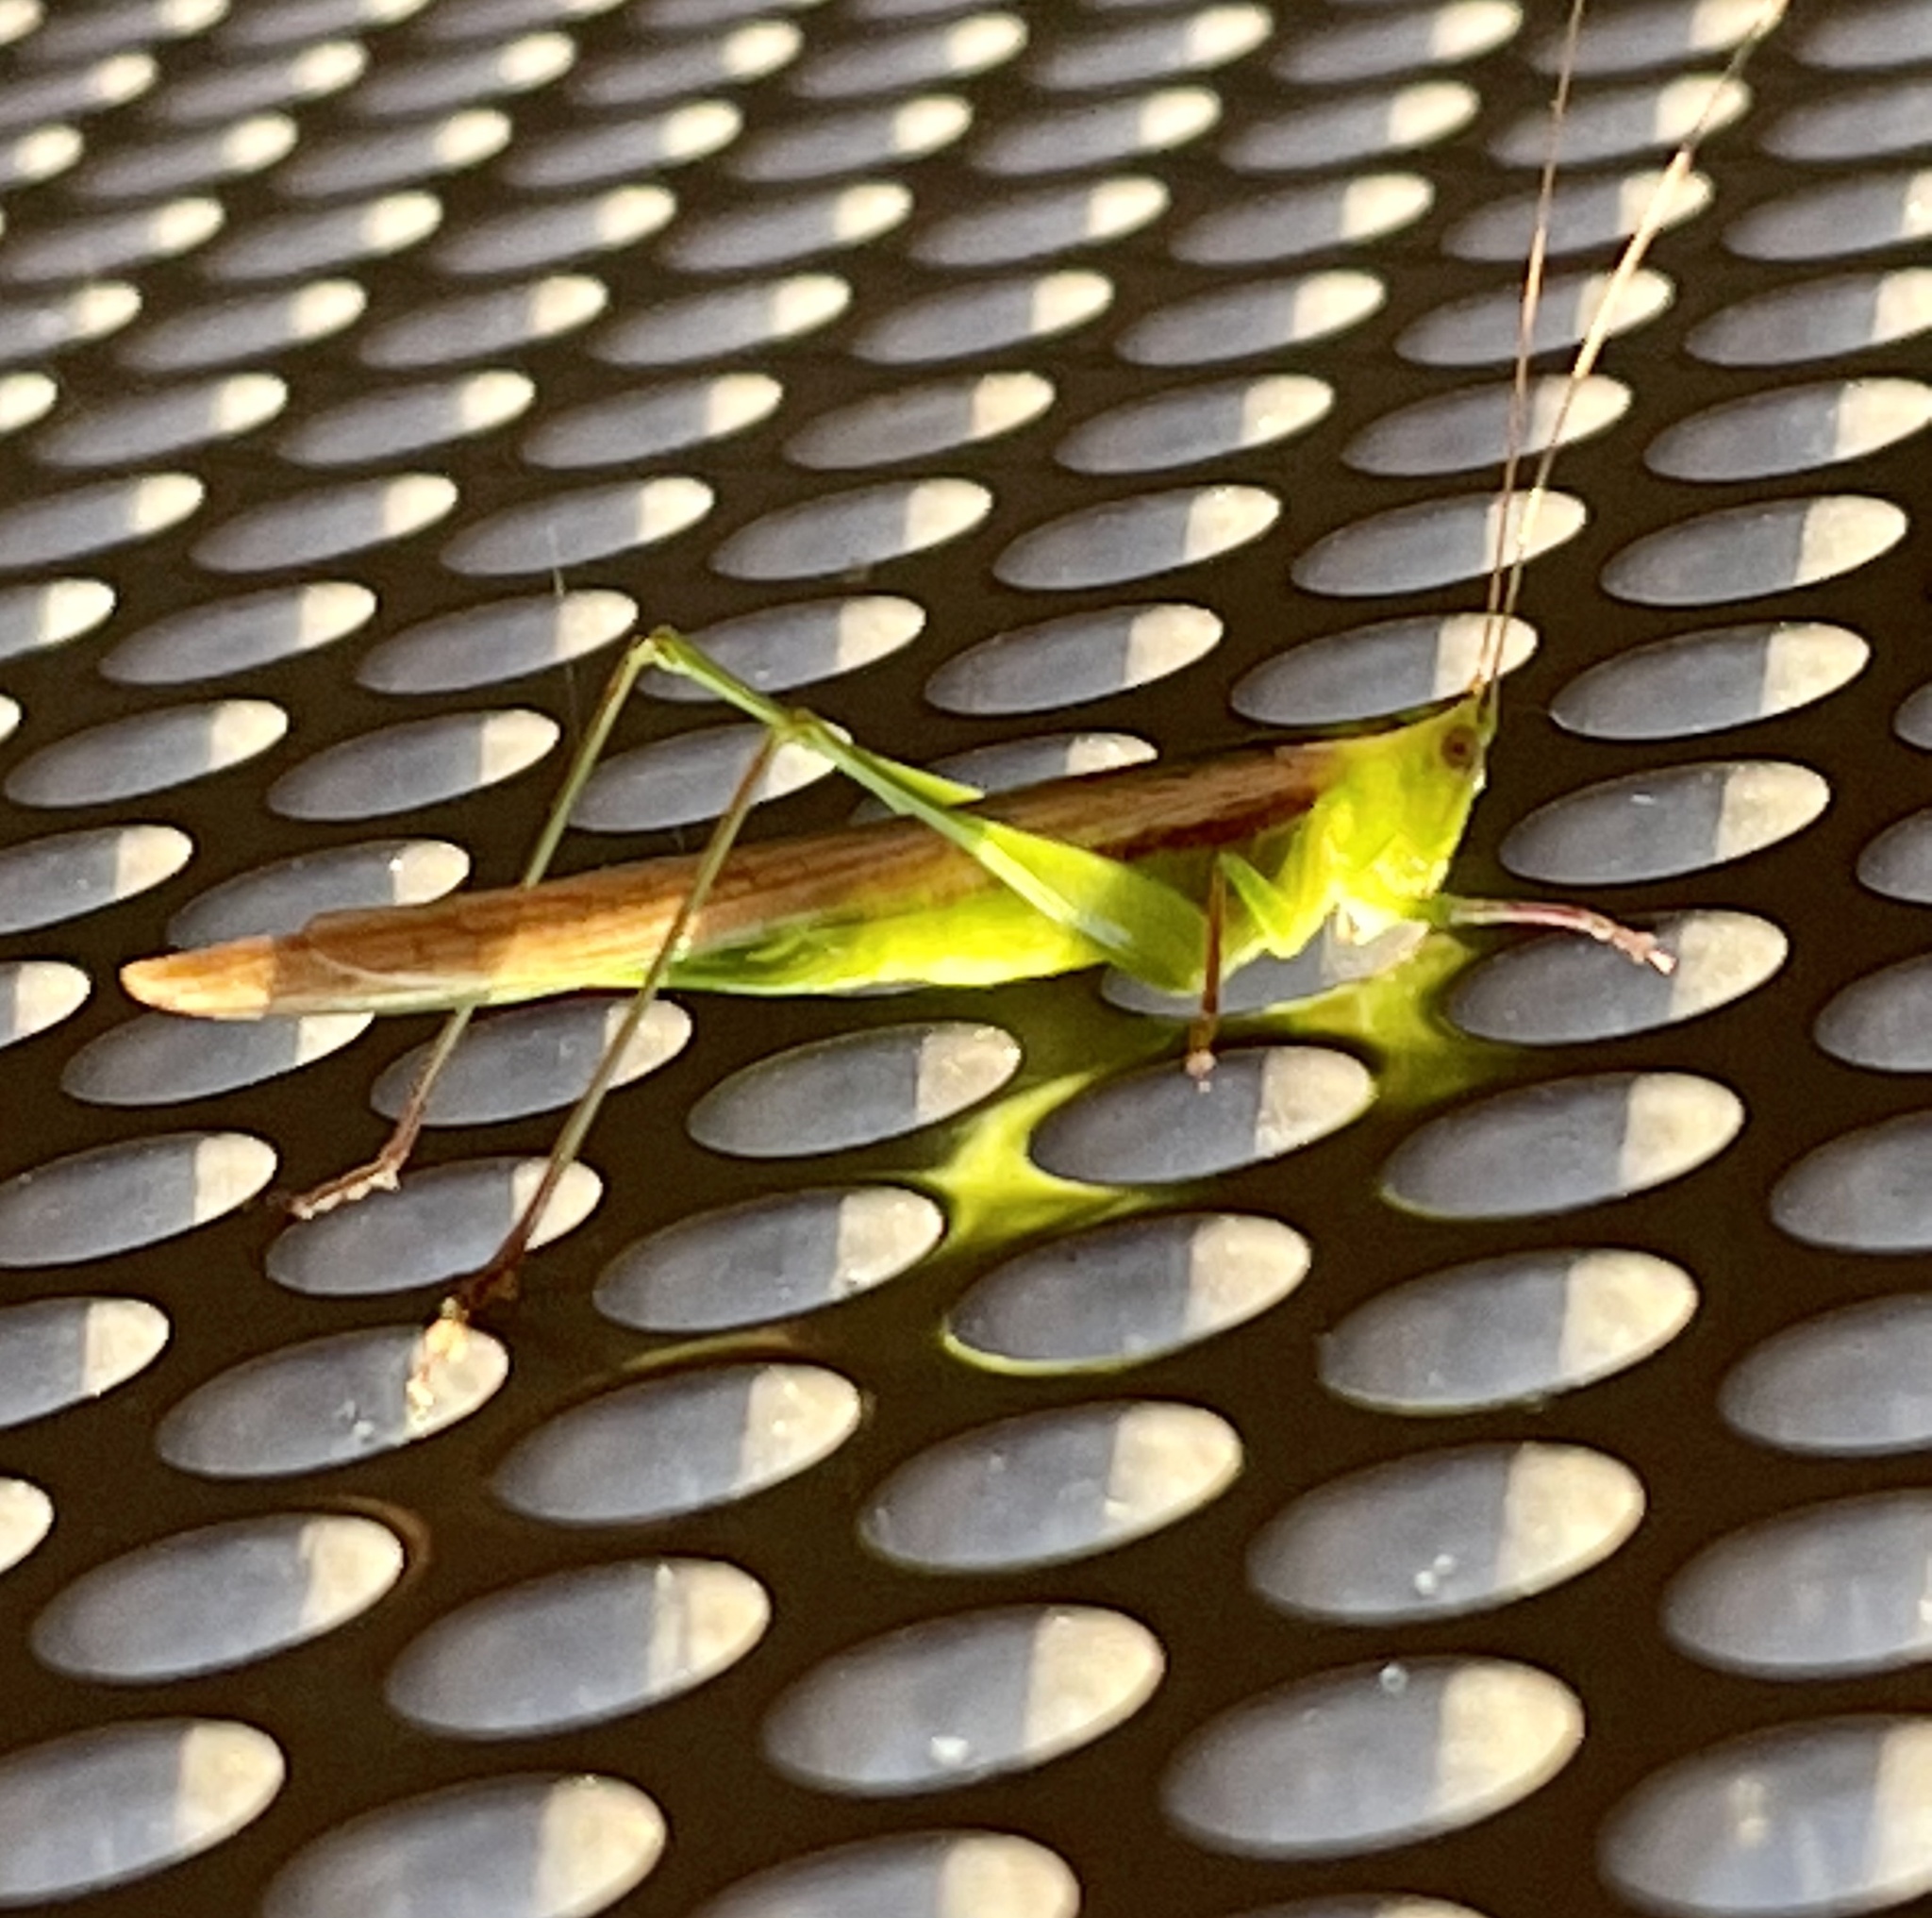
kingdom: Animalia
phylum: Arthropoda
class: Insecta
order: Orthoptera
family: Tettigoniidae
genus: Conocephalus
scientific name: Conocephalus upoluensis
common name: Upolu meadow katydid
